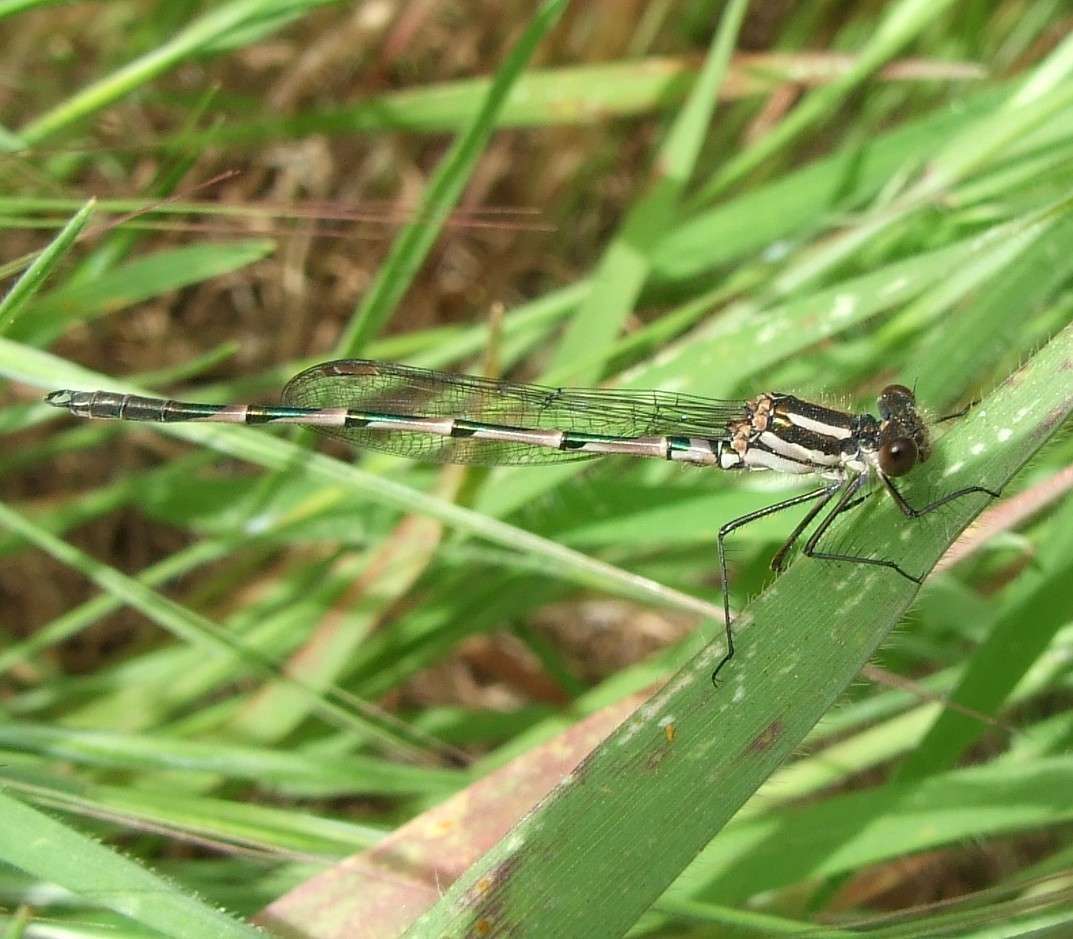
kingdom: Animalia
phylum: Arthropoda
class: Insecta
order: Odonata
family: Lestidae
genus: Austrolestes
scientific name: Austrolestes annulosus
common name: Blue ringtail
